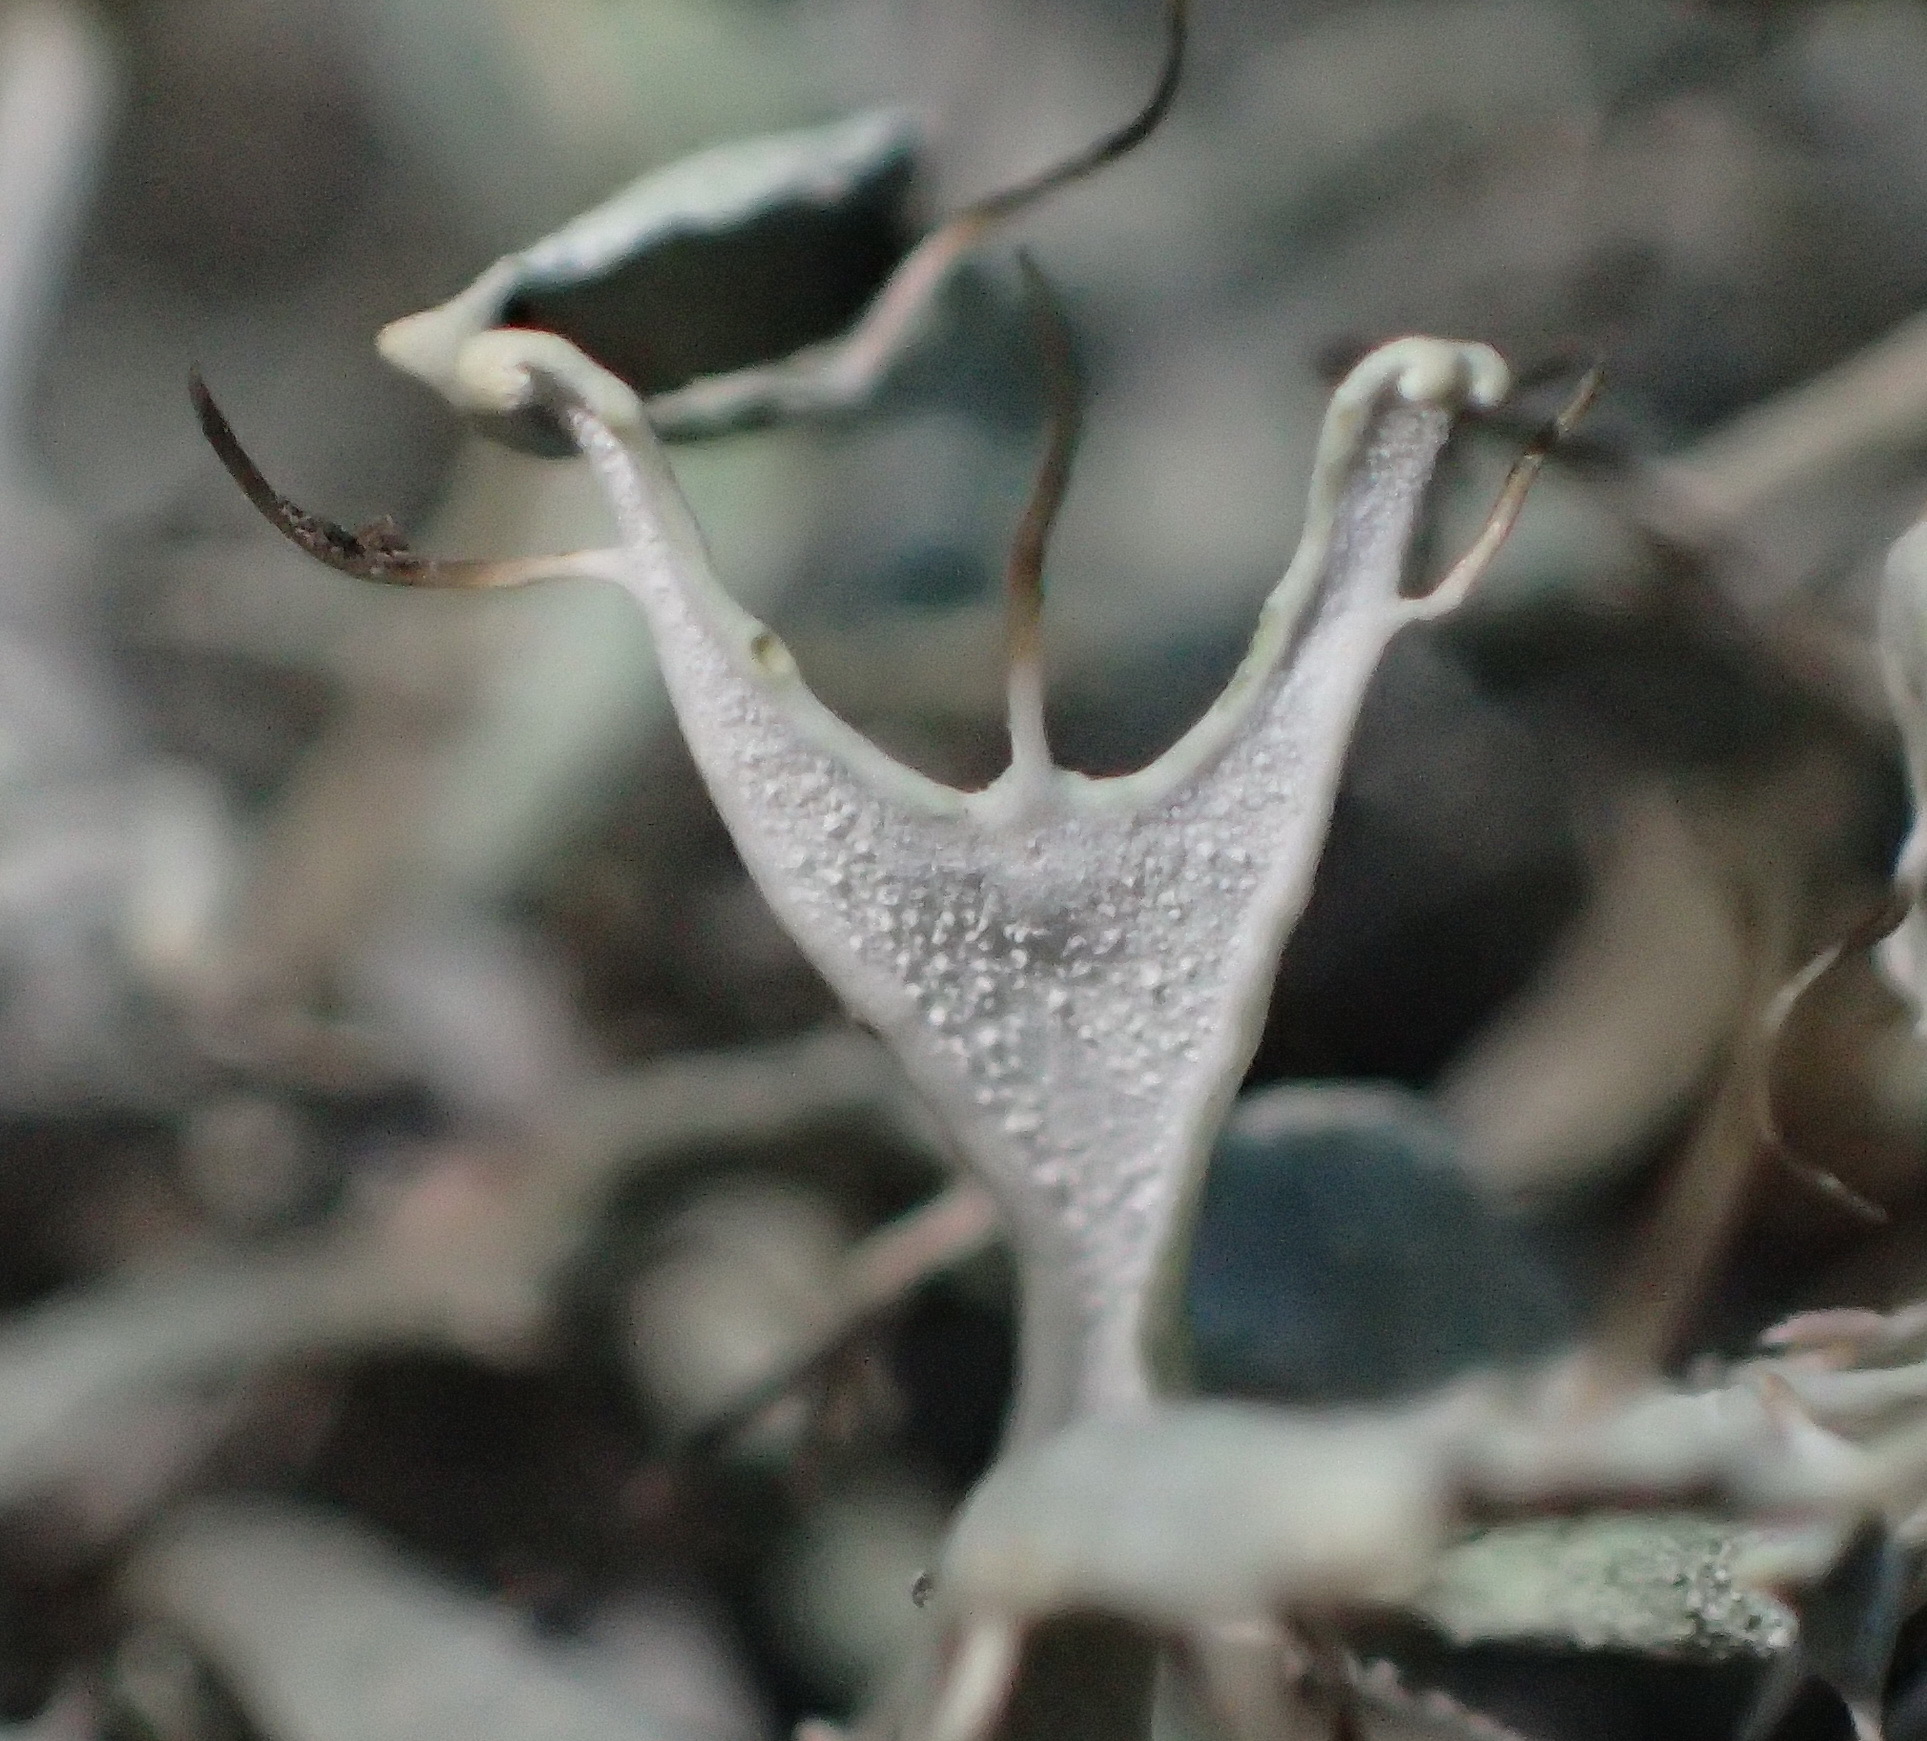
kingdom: Fungi
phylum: Ascomycota
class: Lecanoromycetes
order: Caliciales
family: Physciaceae
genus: Leucodermia
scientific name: Leucodermia leucomelos
